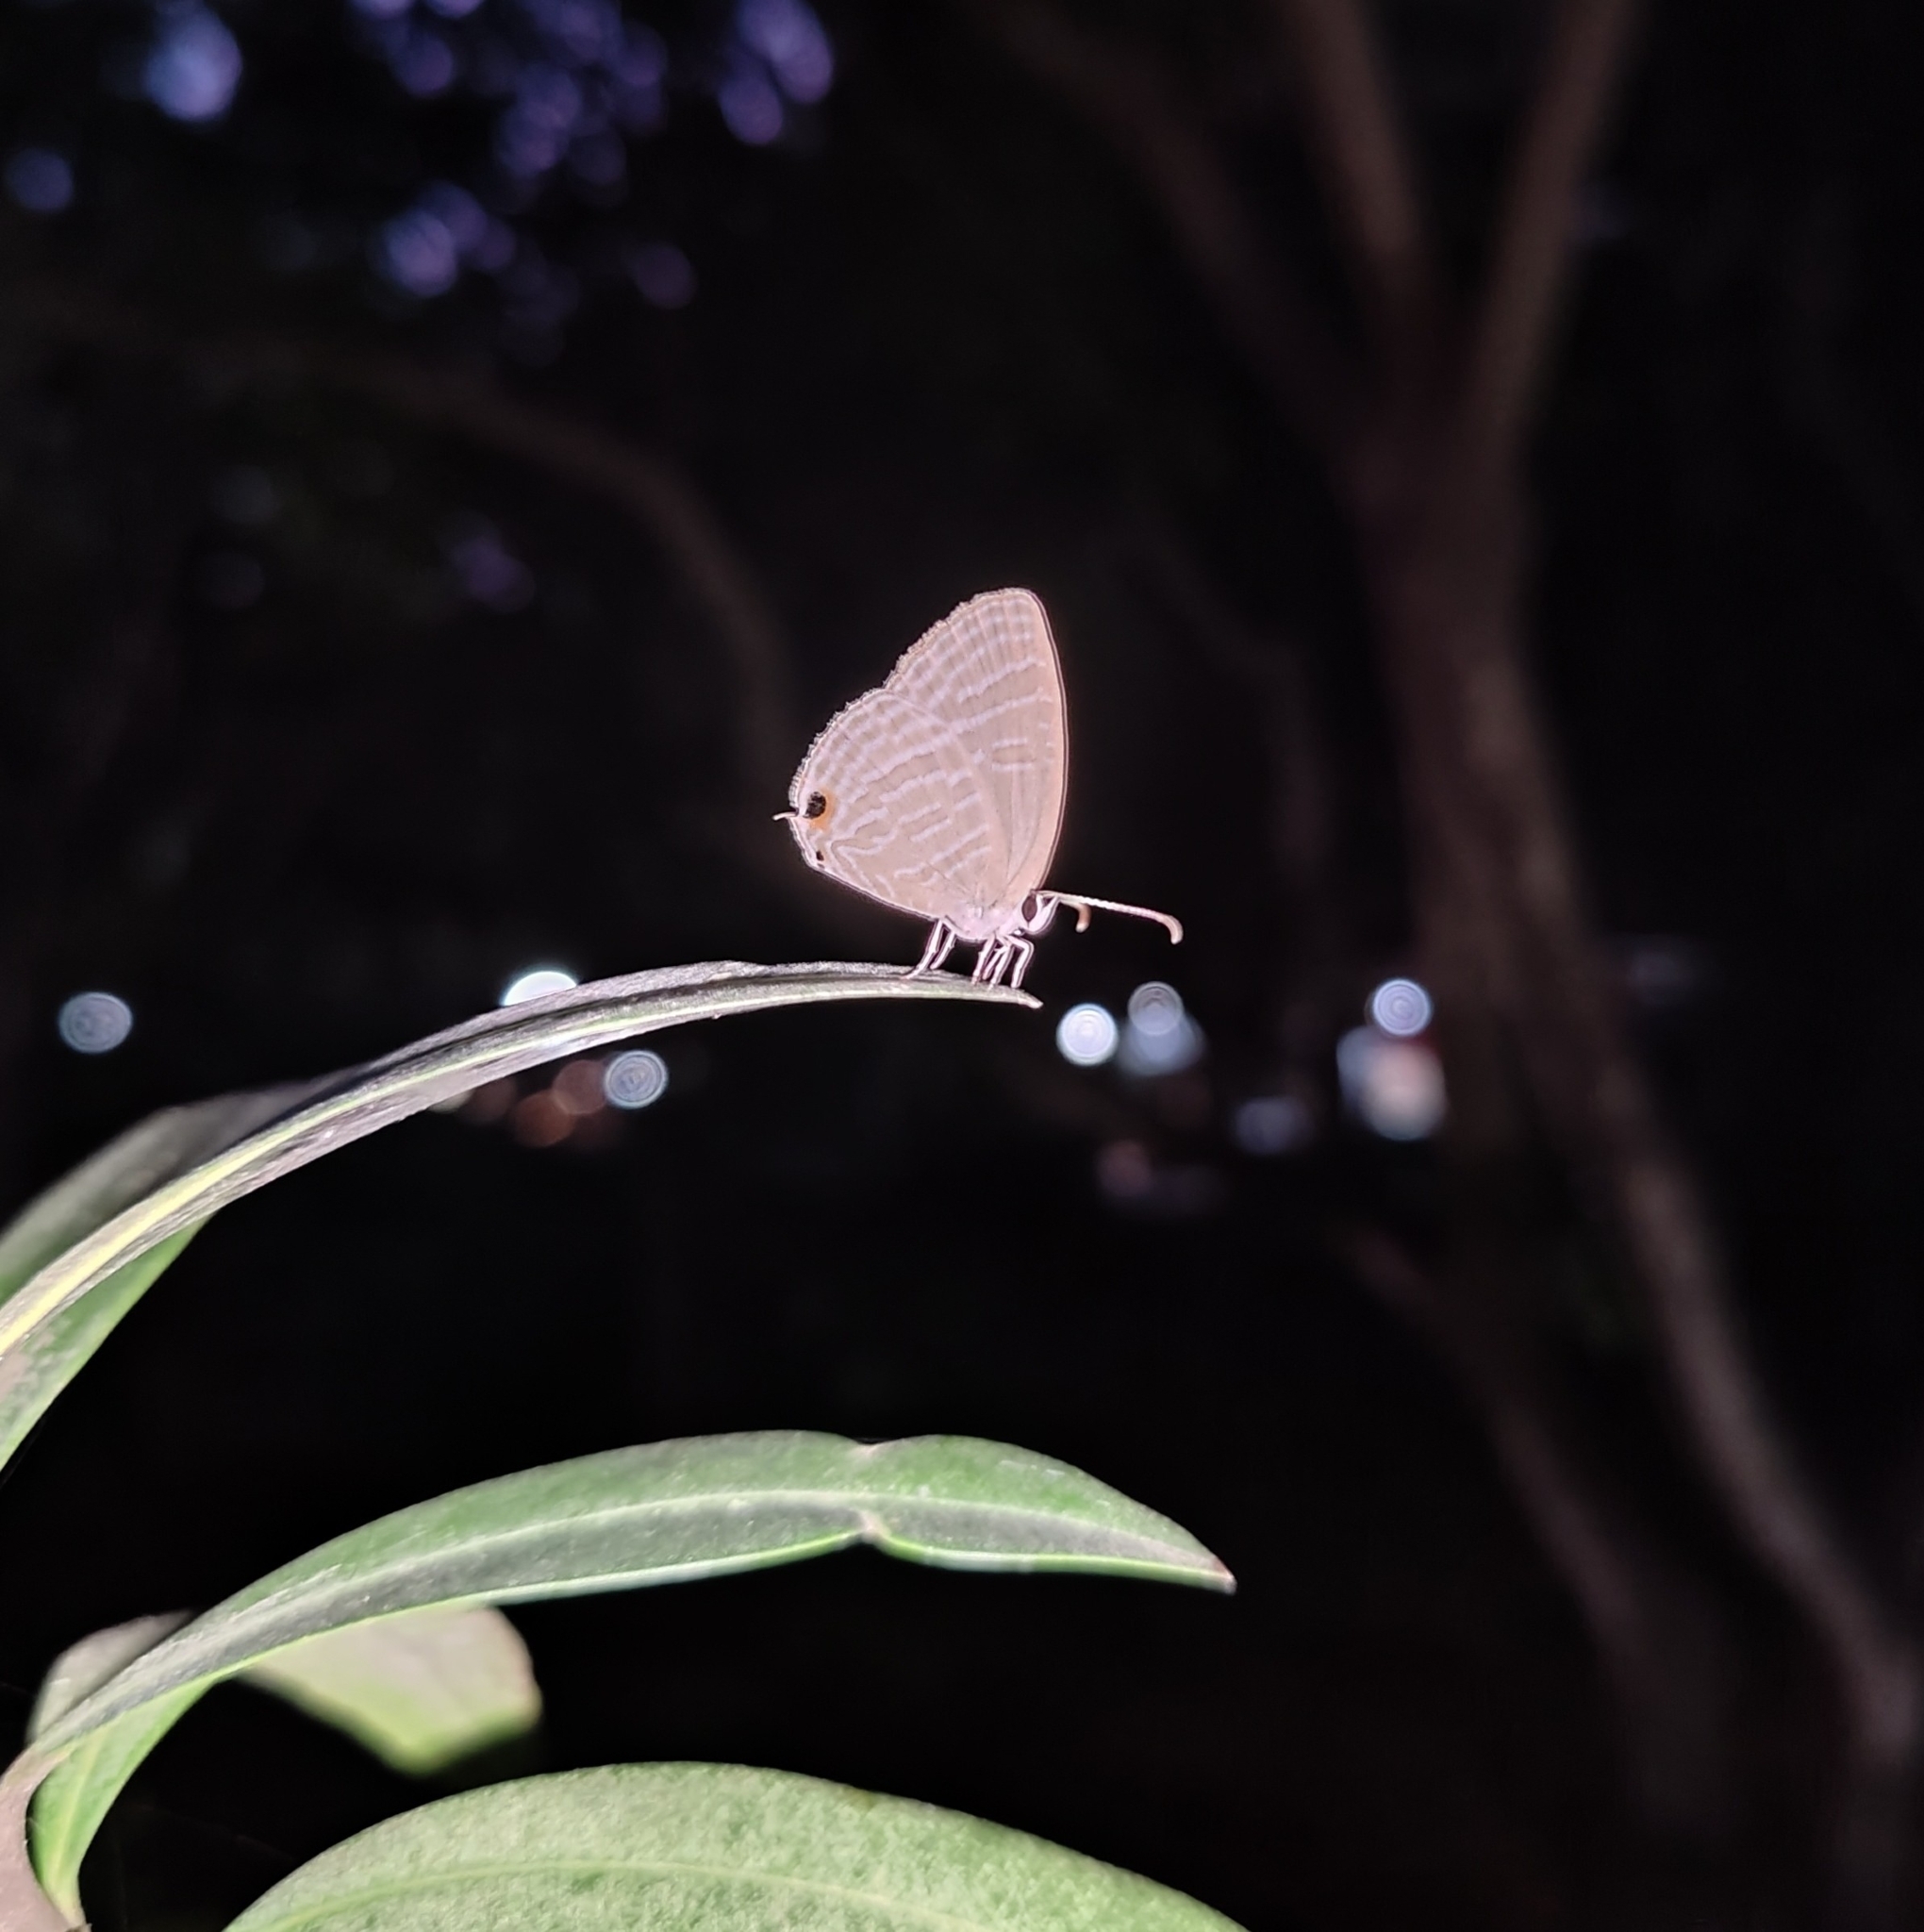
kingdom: Animalia
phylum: Arthropoda
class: Insecta
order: Lepidoptera
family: Lycaenidae
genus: Jamides
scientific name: Jamides celeno
